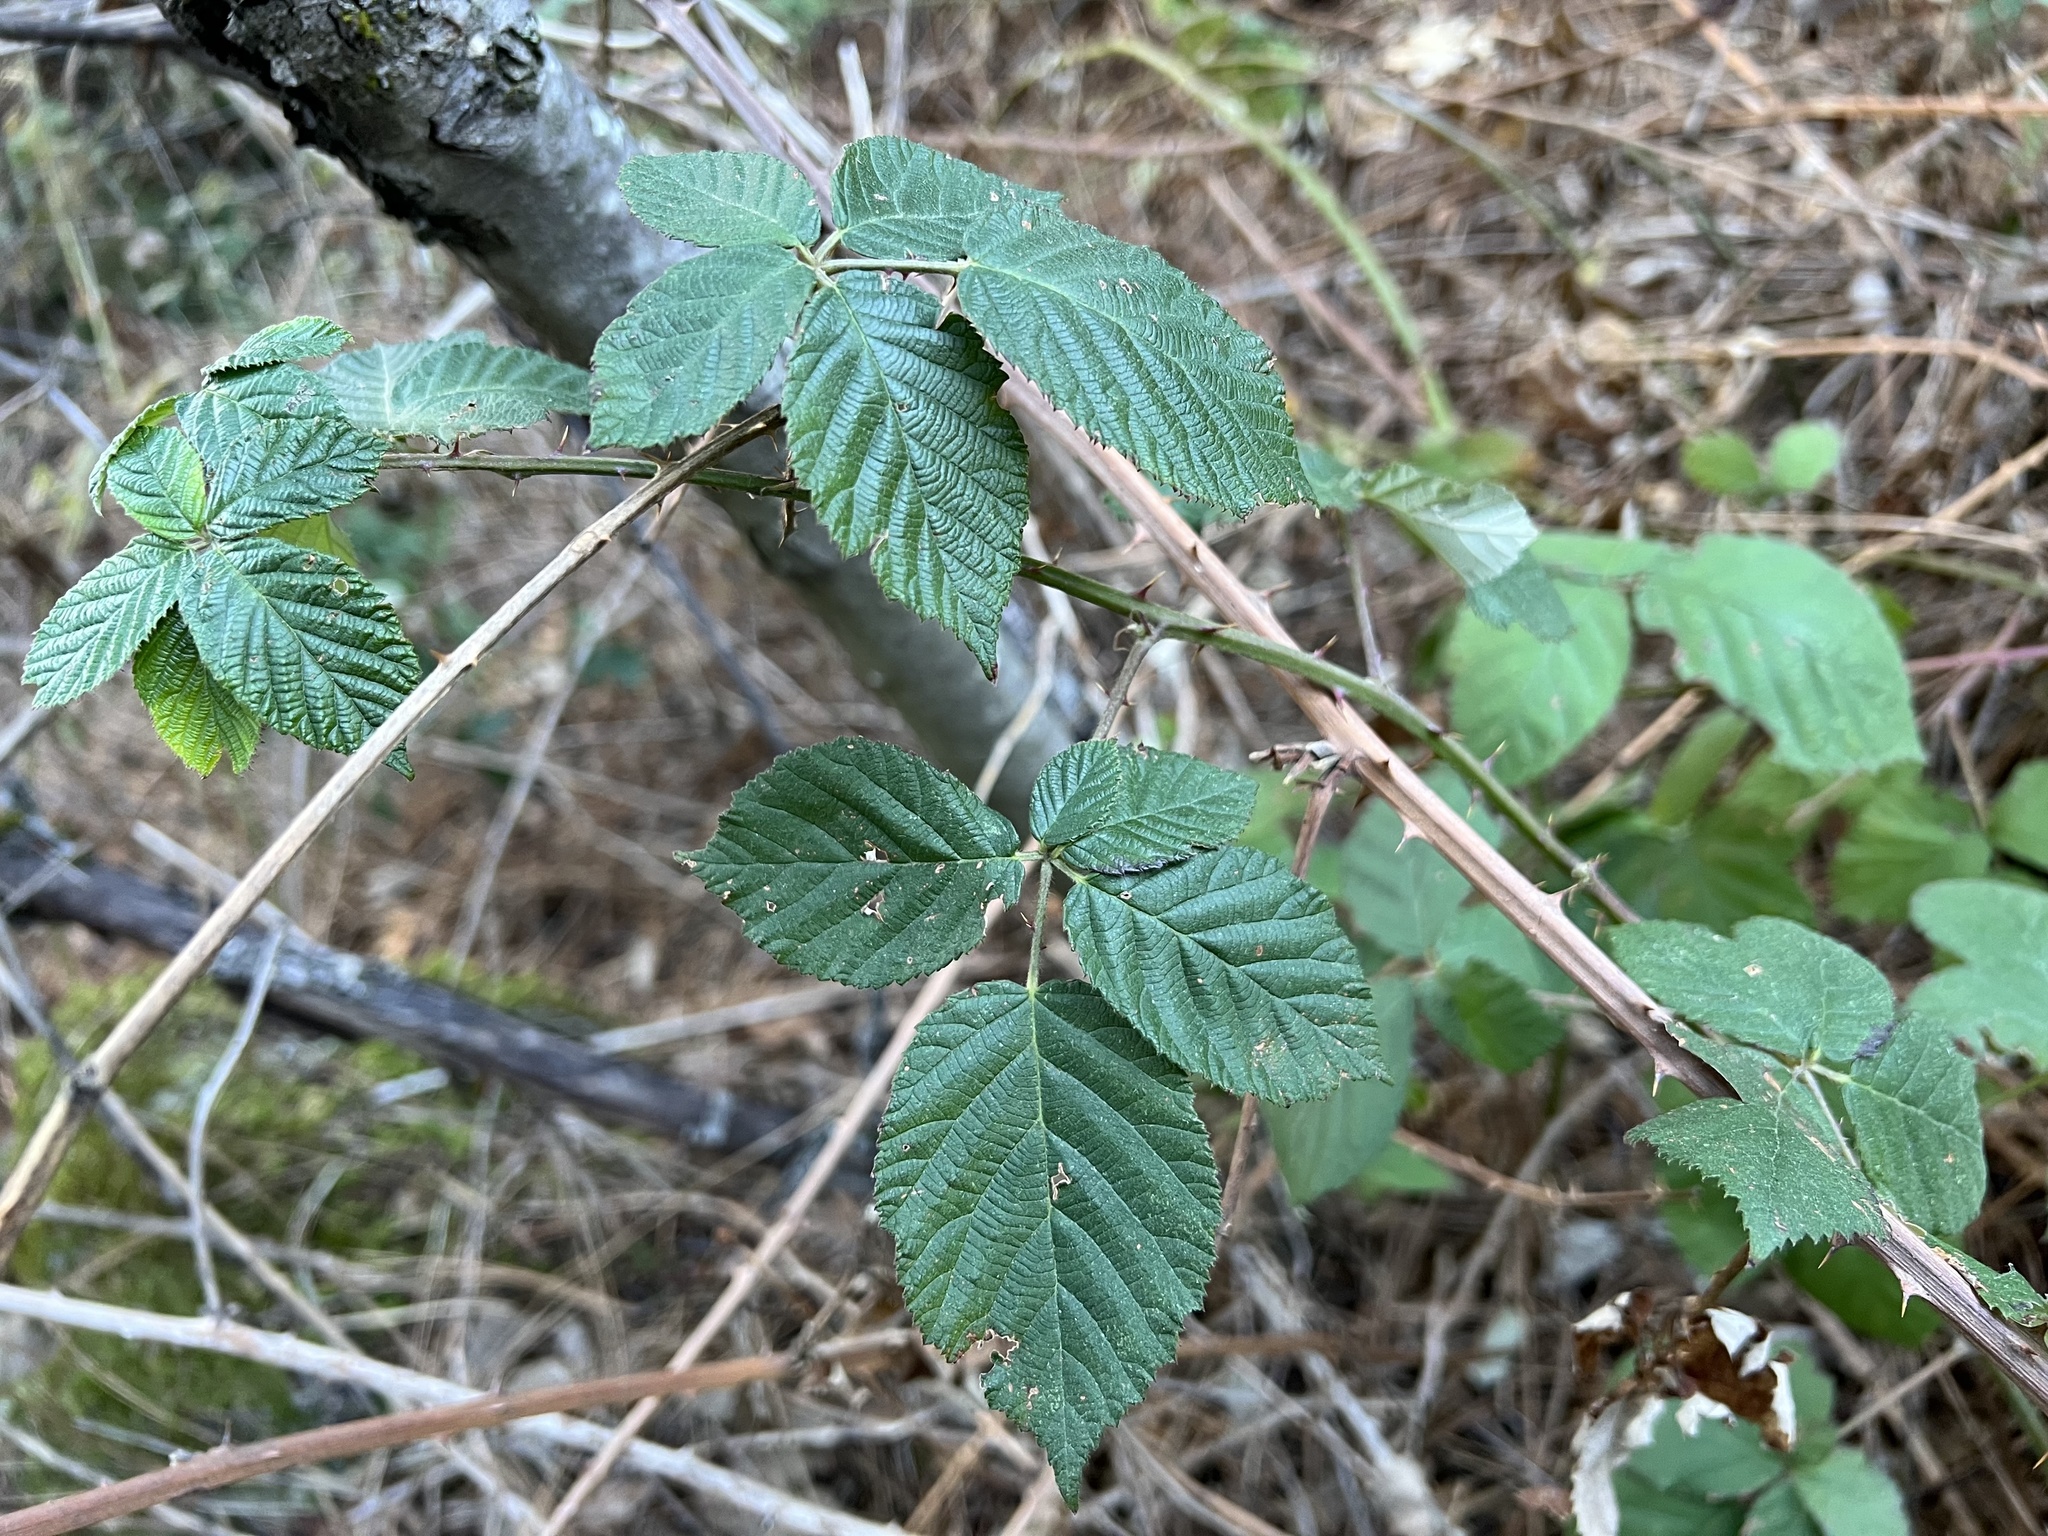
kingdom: Plantae
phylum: Tracheophyta
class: Magnoliopsida
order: Rosales
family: Rosaceae
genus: Rubus
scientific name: Rubus ursinus
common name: Pacific blackberry
